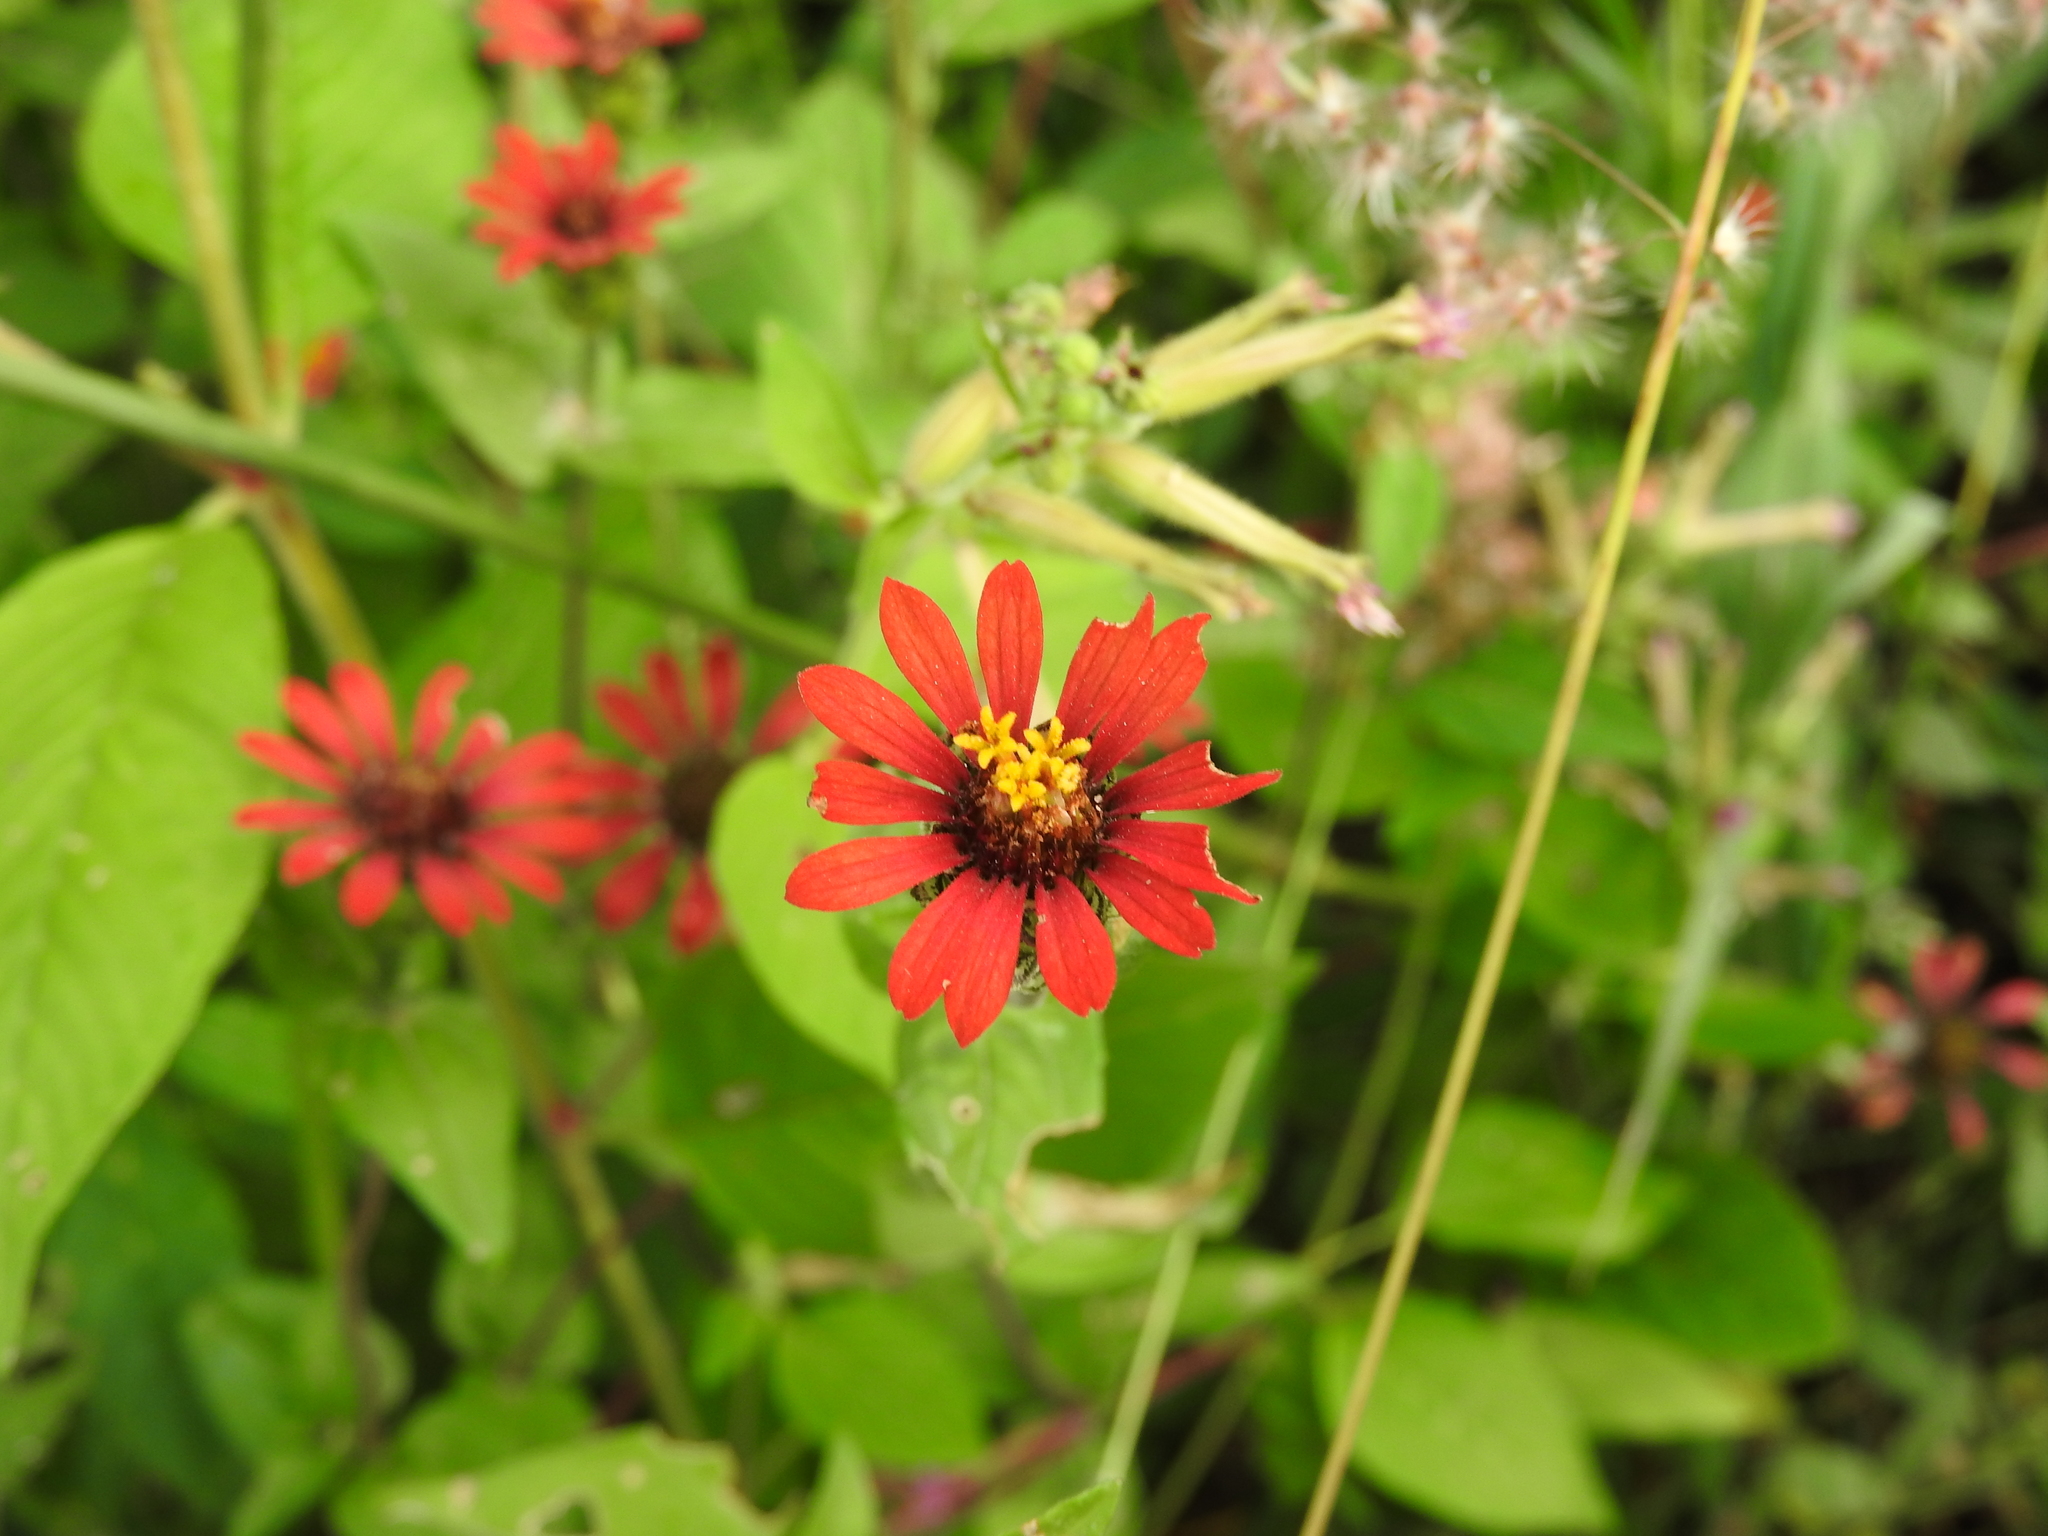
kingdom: Plantae
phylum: Tracheophyta
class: Magnoliopsida
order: Asterales
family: Asteraceae
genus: Zinnia
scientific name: Zinnia peruviana
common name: Peruvian zinnia
